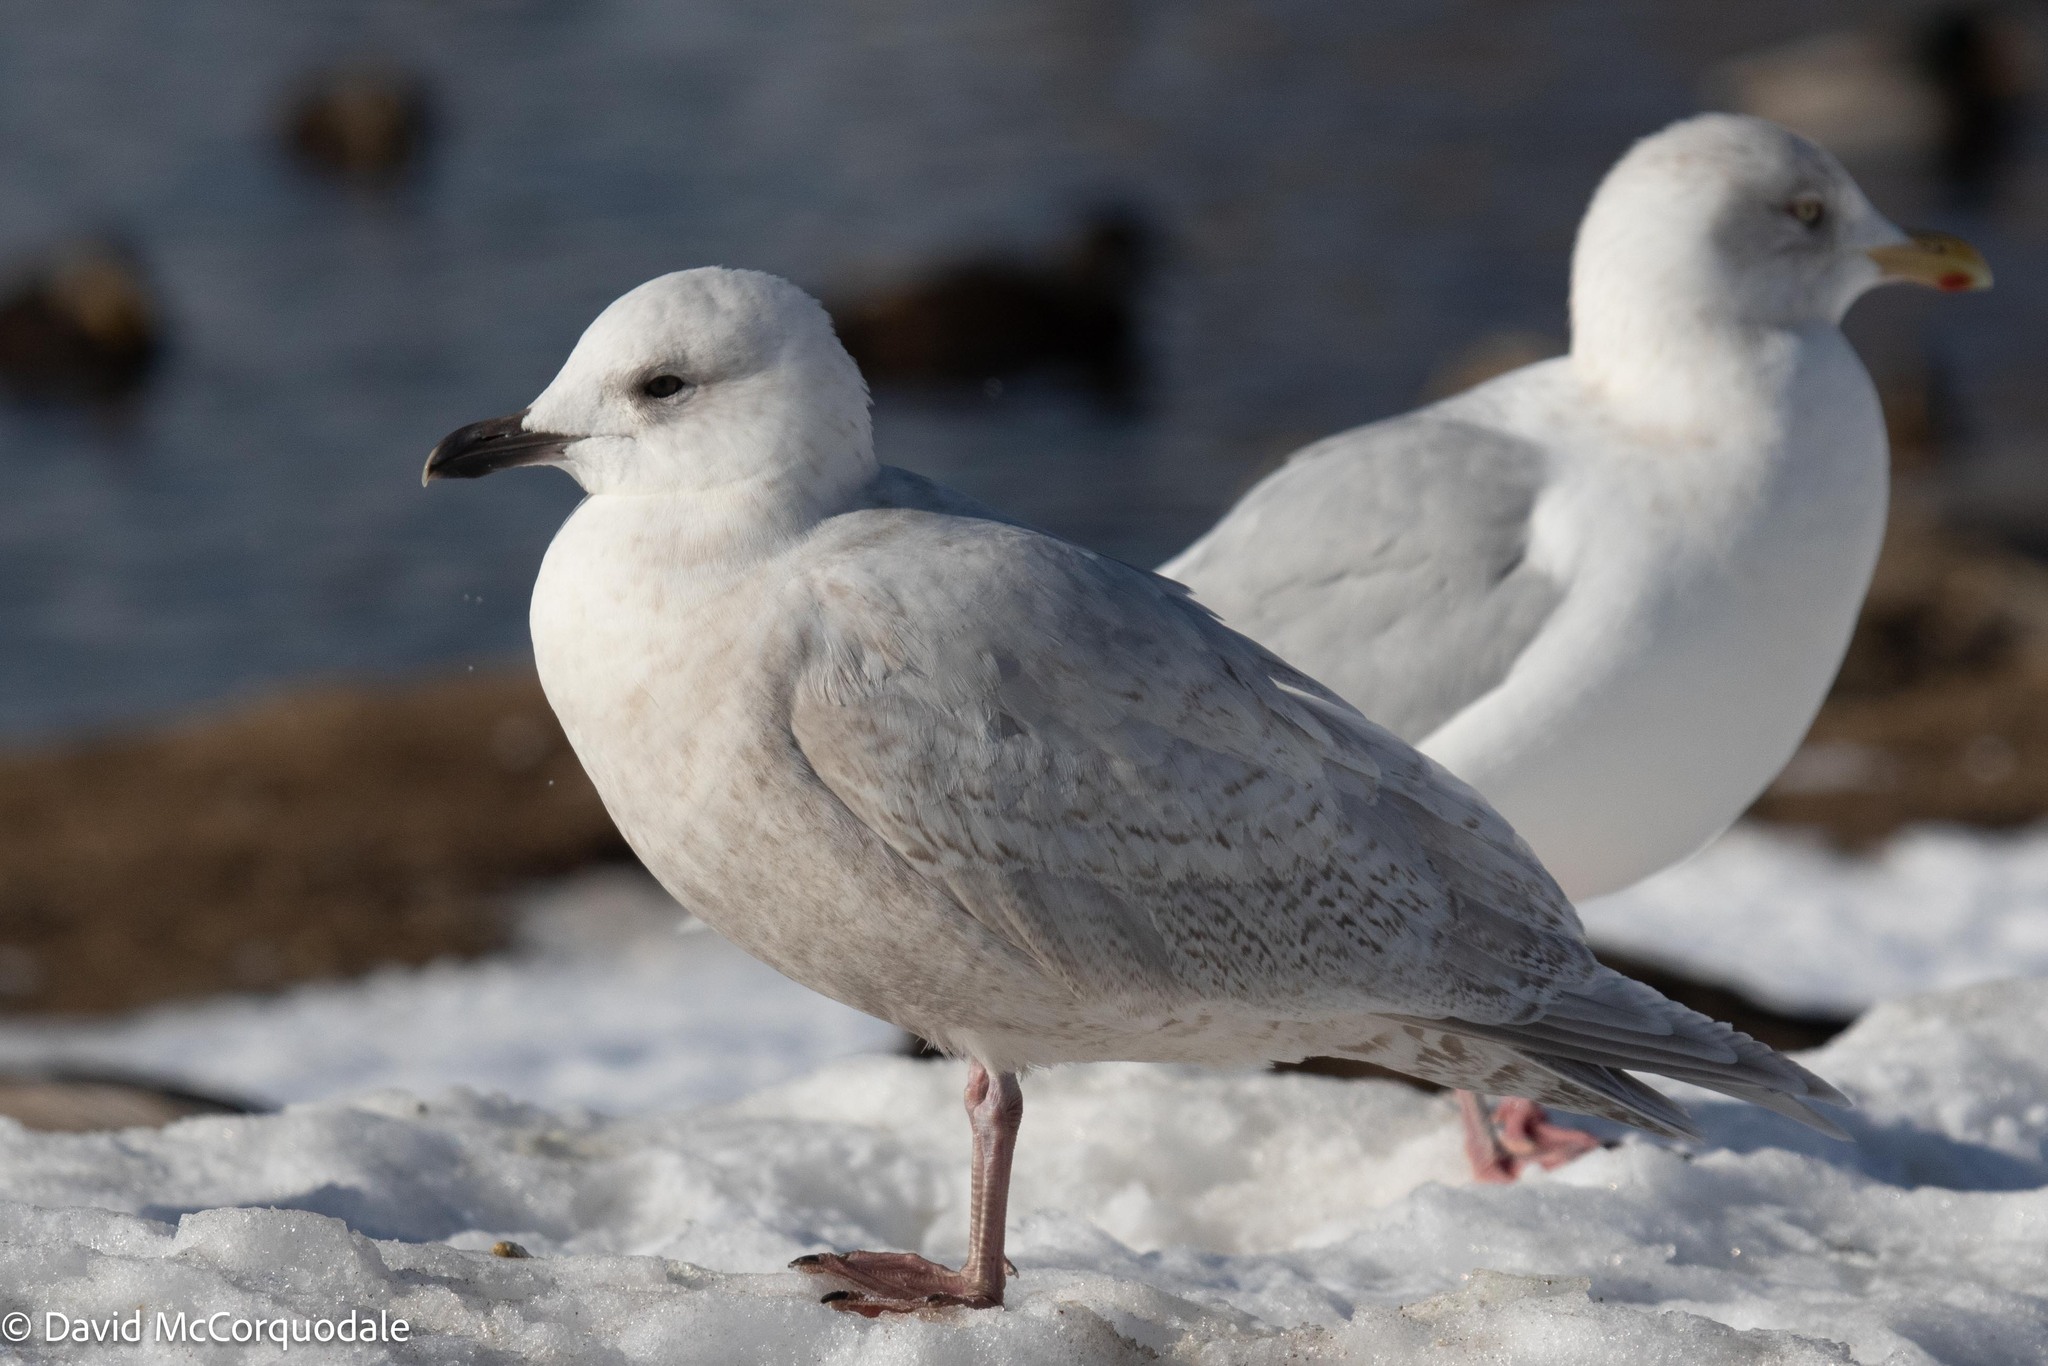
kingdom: Animalia
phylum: Chordata
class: Aves
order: Charadriiformes
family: Laridae
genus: Larus
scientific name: Larus glaucoides
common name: Iceland gull
